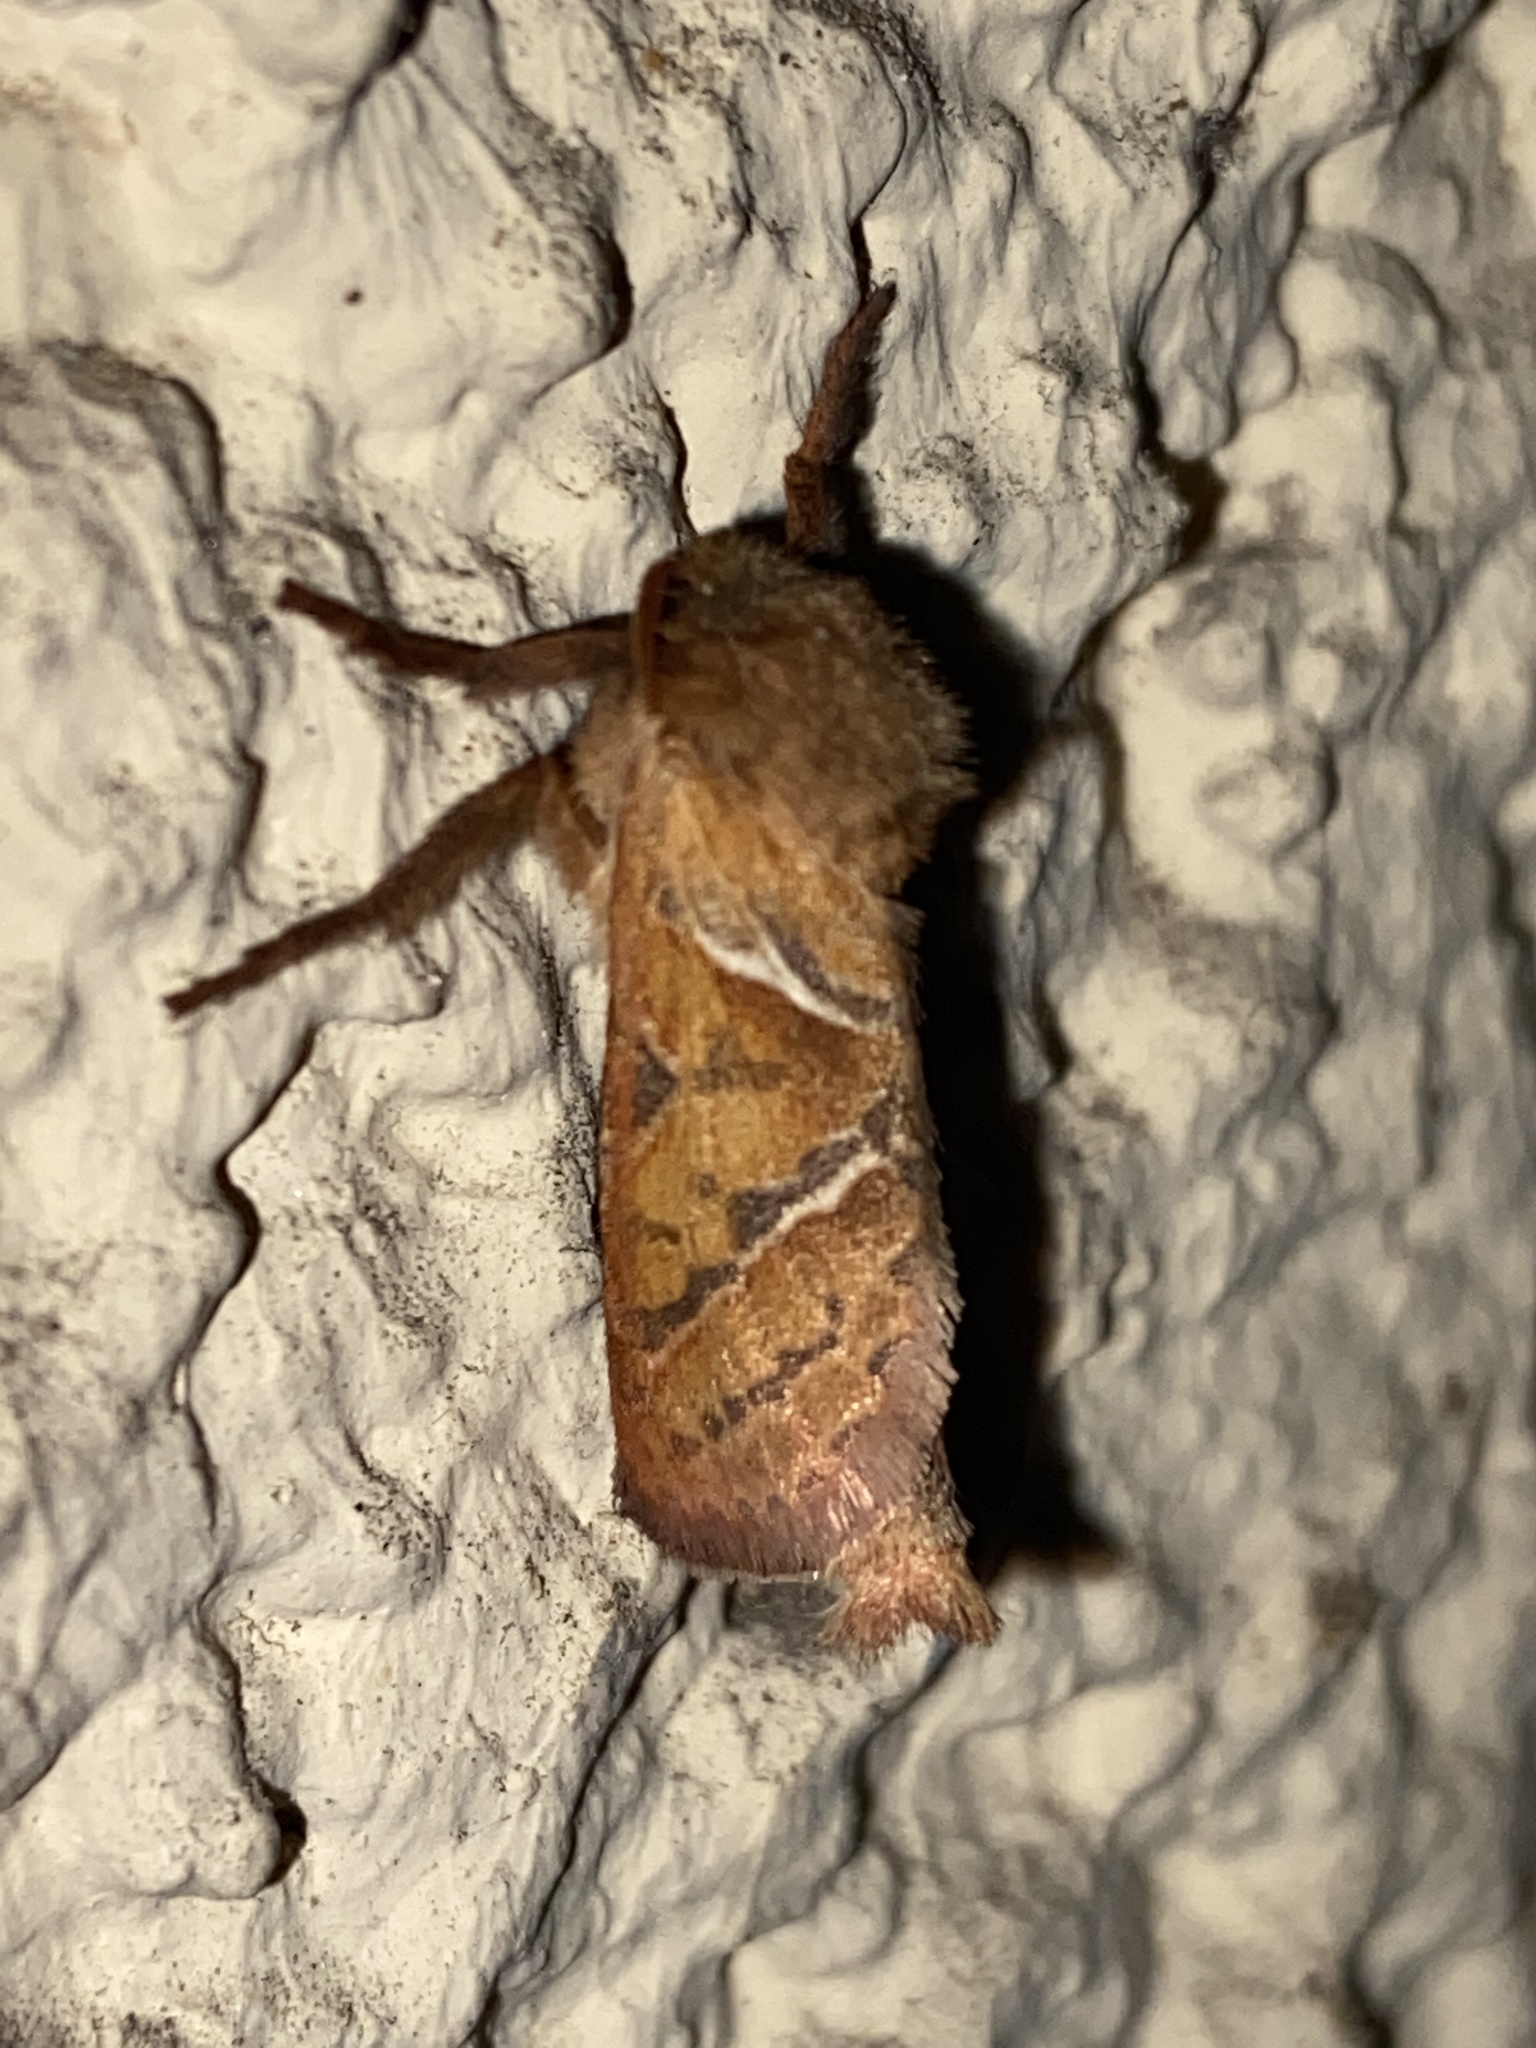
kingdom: Animalia
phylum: Arthropoda
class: Insecta
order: Lepidoptera
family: Hepialidae
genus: Triodia
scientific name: Triodia sylvina
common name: Orange swift
